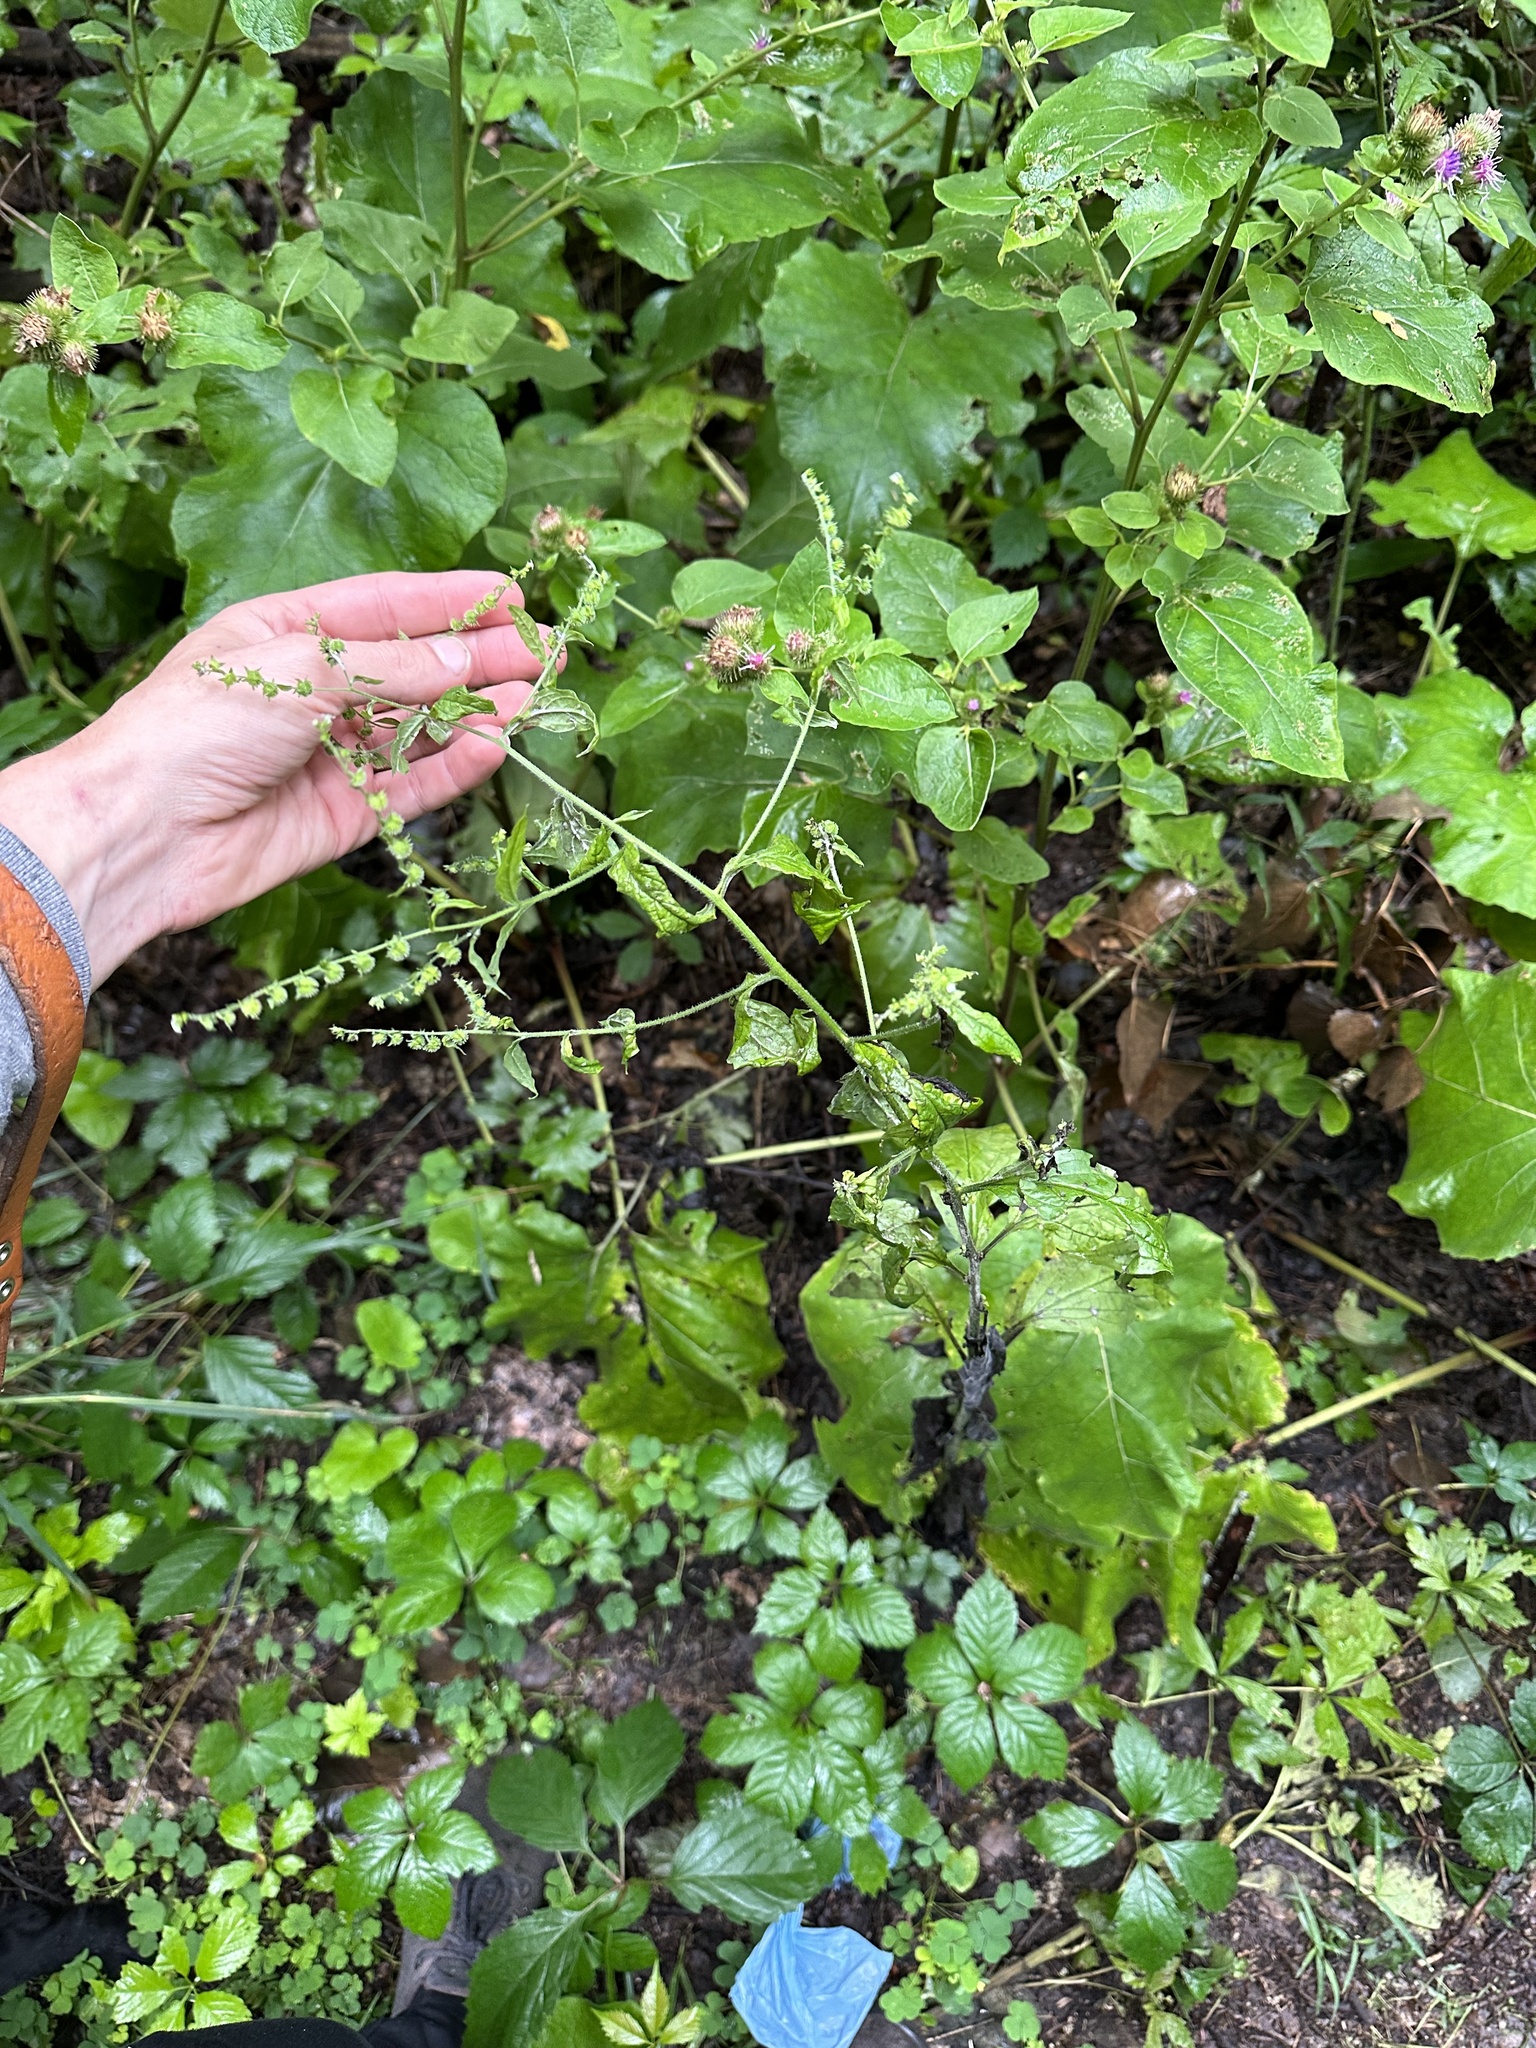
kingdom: Plantae
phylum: Tracheophyta
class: Magnoliopsida
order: Boraginales
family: Boraginaceae
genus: Hackelia
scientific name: Hackelia virginiana
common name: Beggar's-lice
